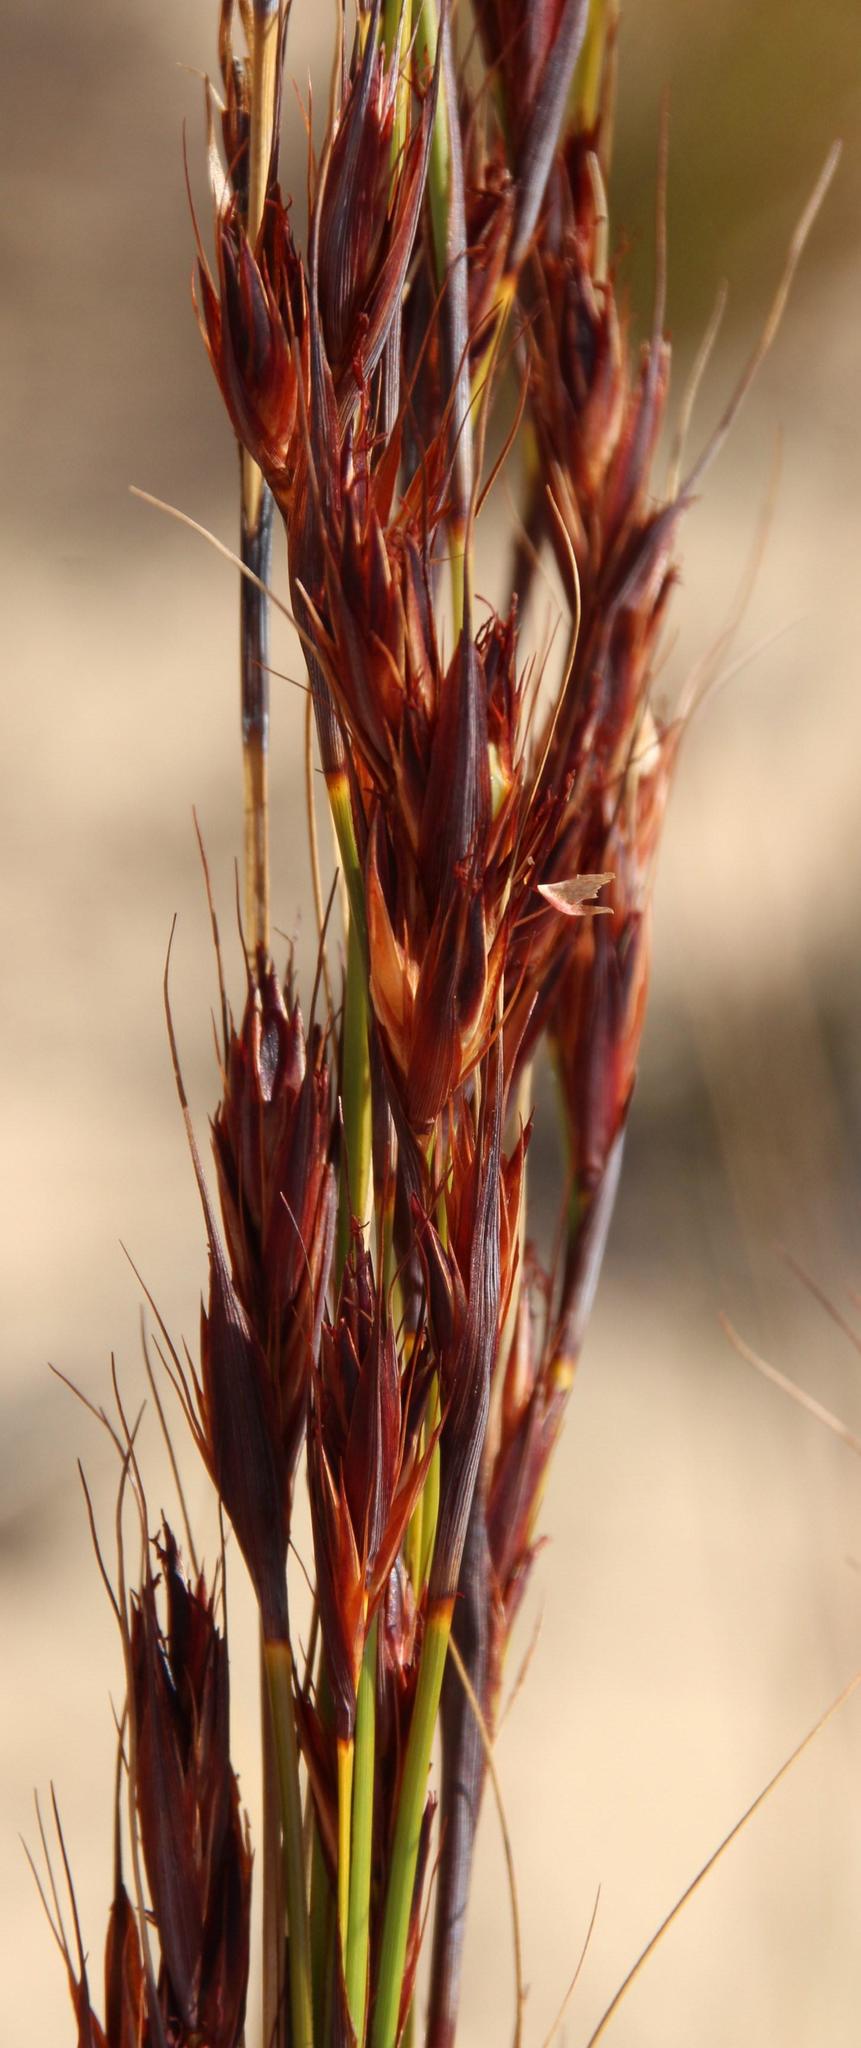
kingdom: Plantae
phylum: Tracheophyta
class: Liliopsida
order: Poales
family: Cyperaceae
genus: Tetraria
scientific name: Tetraria ustulata
